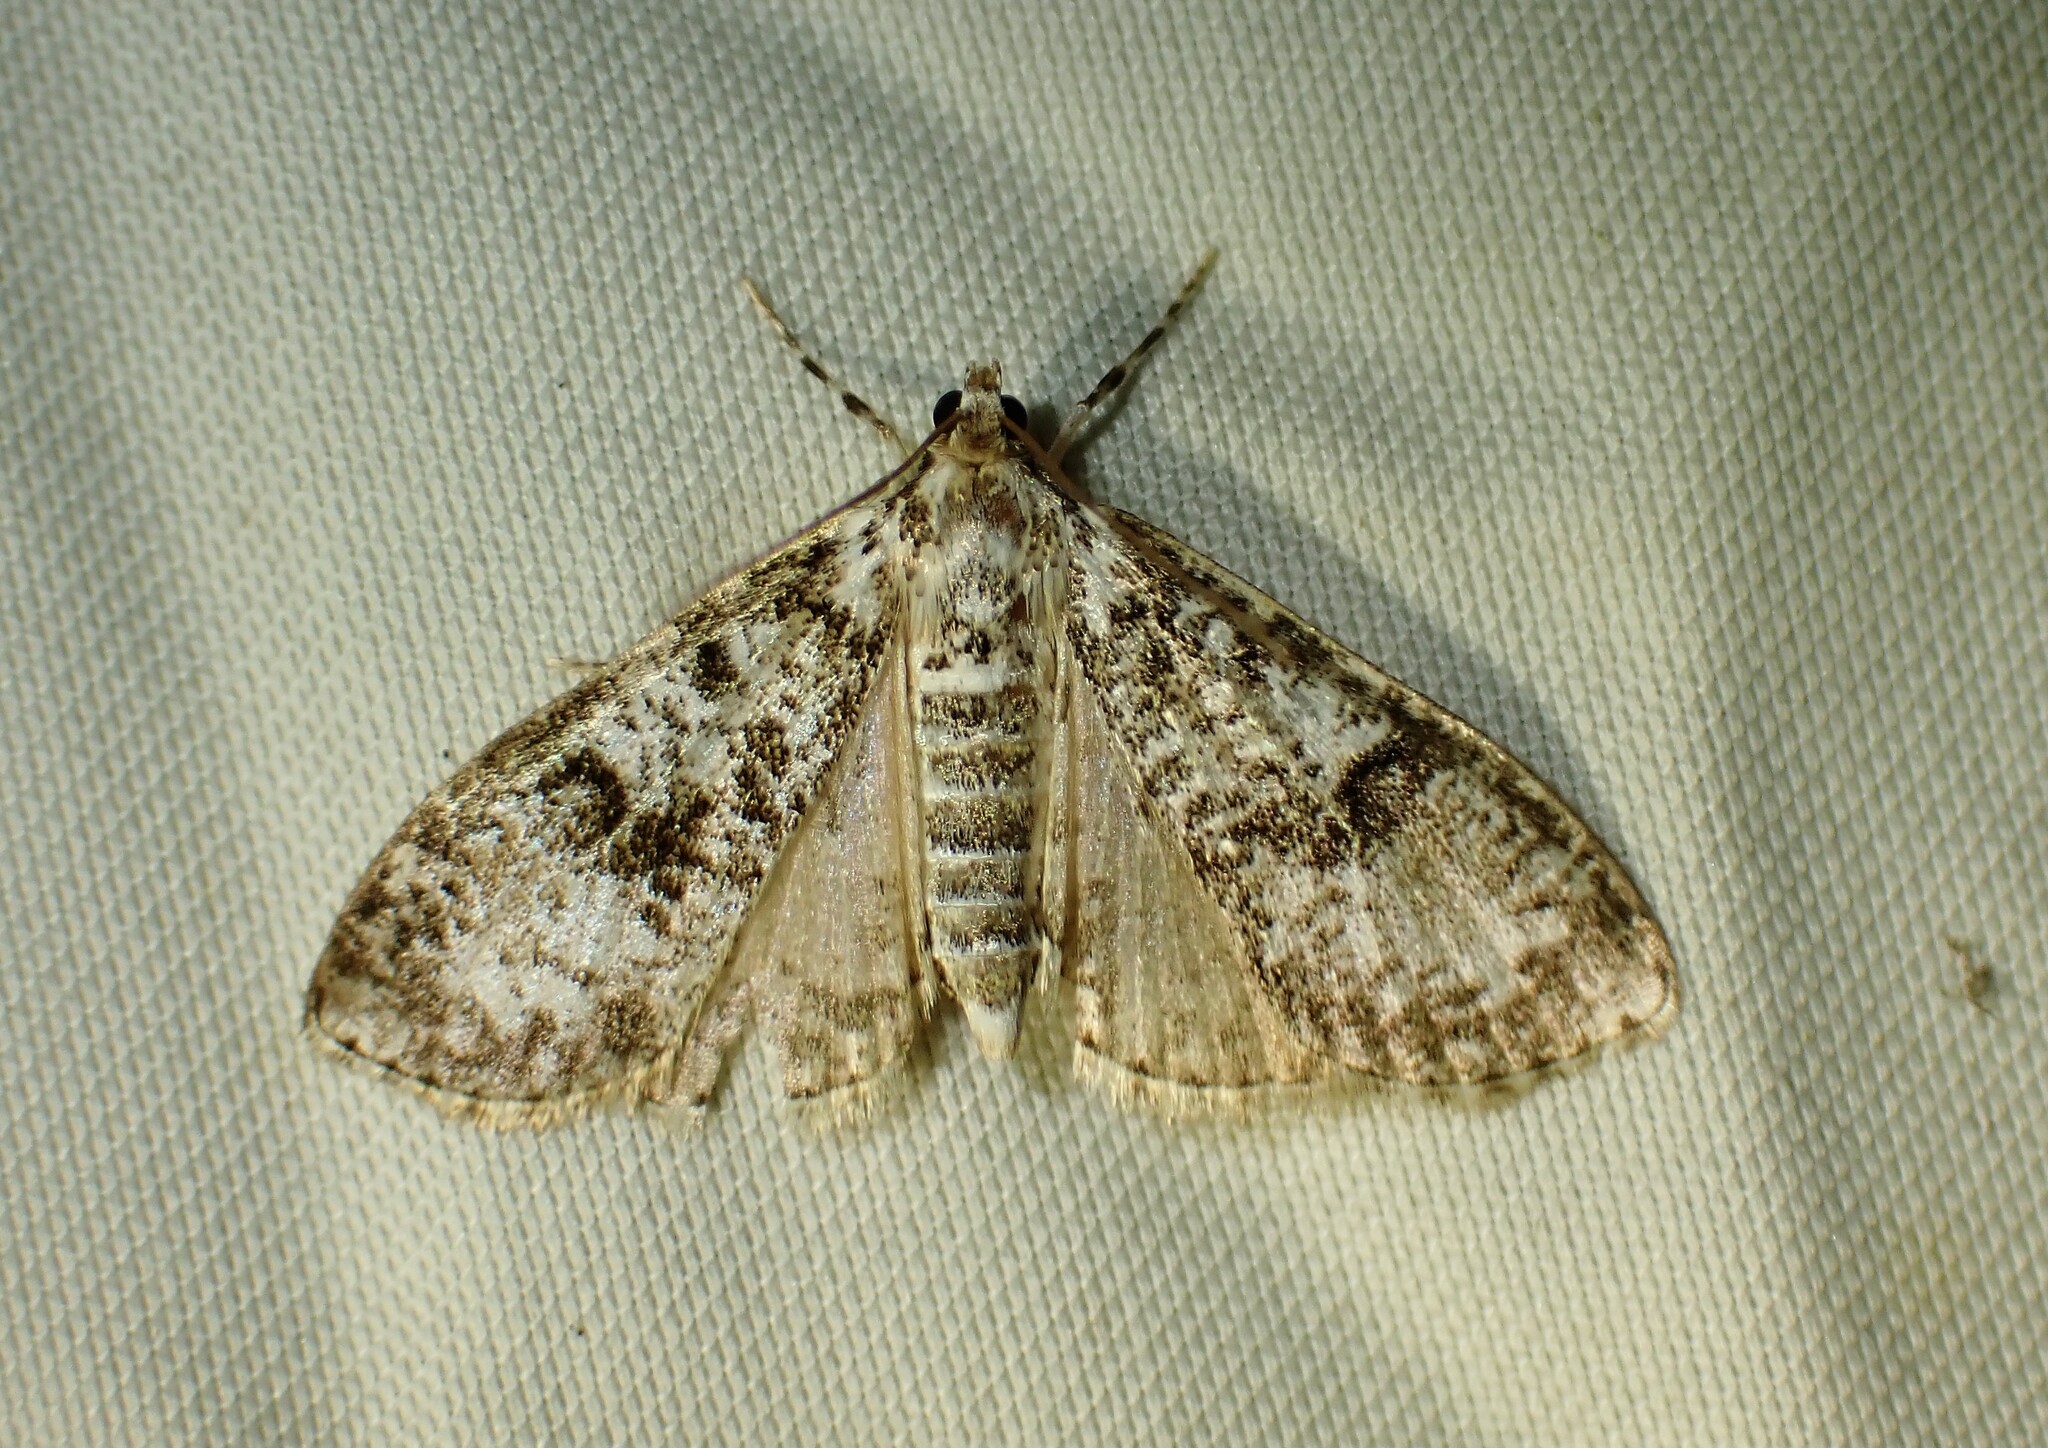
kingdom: Animalia
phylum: Arthropoda
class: Insecta
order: Lepidoptera
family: Crambidae
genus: Palpita
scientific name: Palpita magniferalis
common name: Splendid palpita moth
